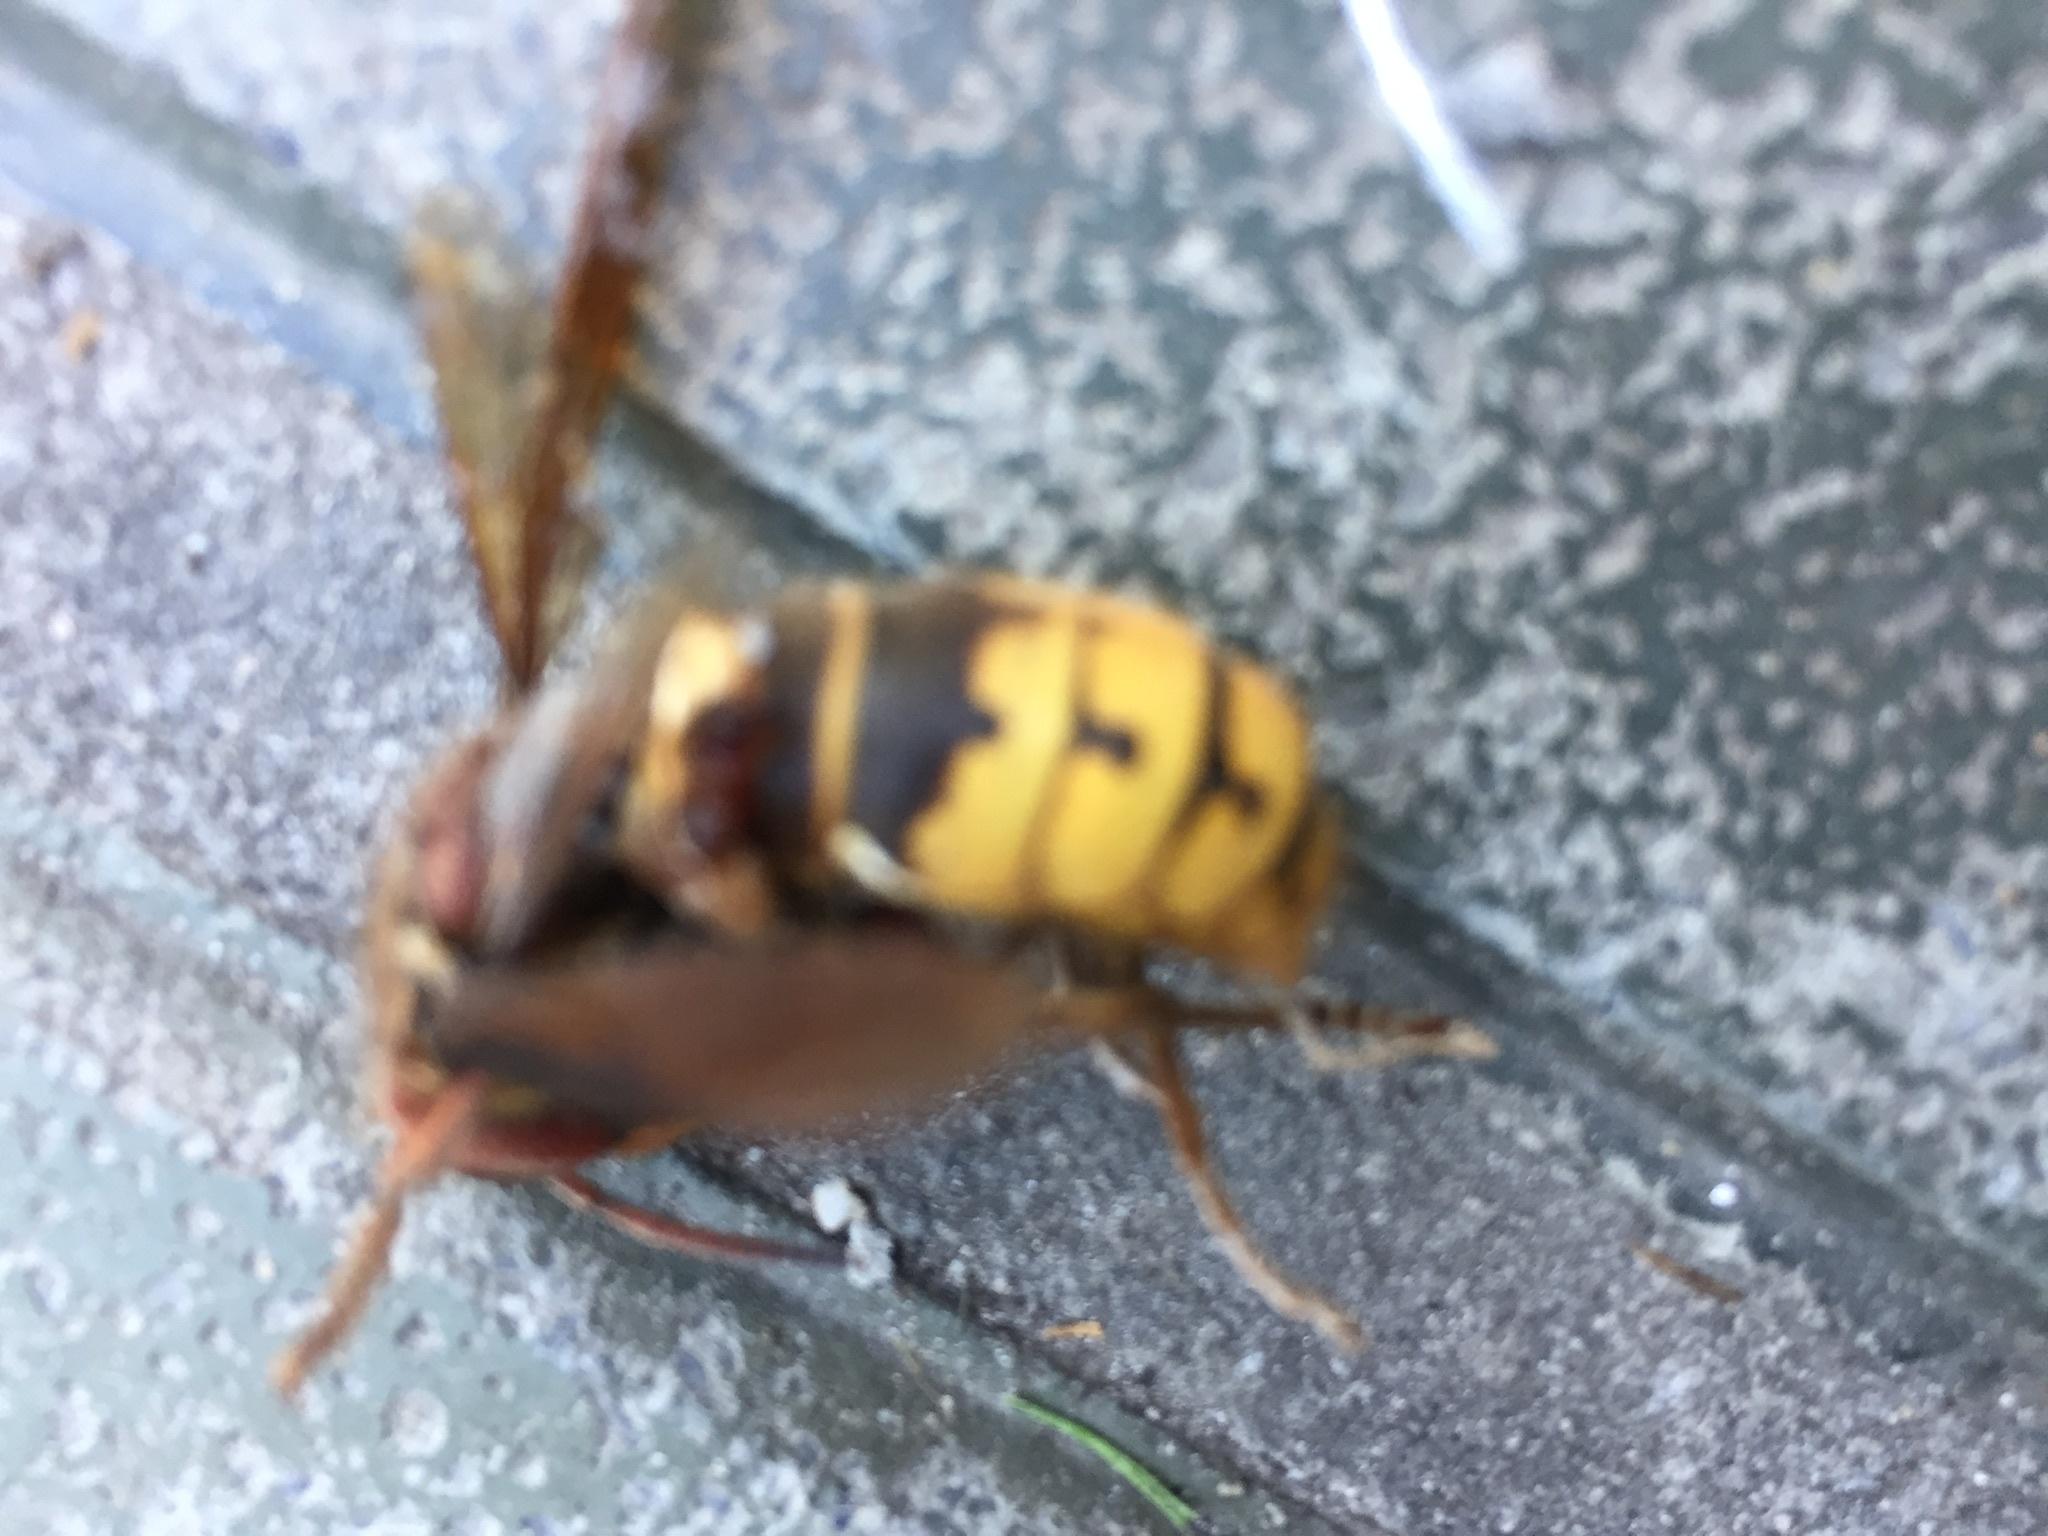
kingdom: Animalia
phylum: Arthropoda
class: Insecta
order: Hymenoptera
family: Vespidae
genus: Vespa
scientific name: Vespa crabro
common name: Hornet
